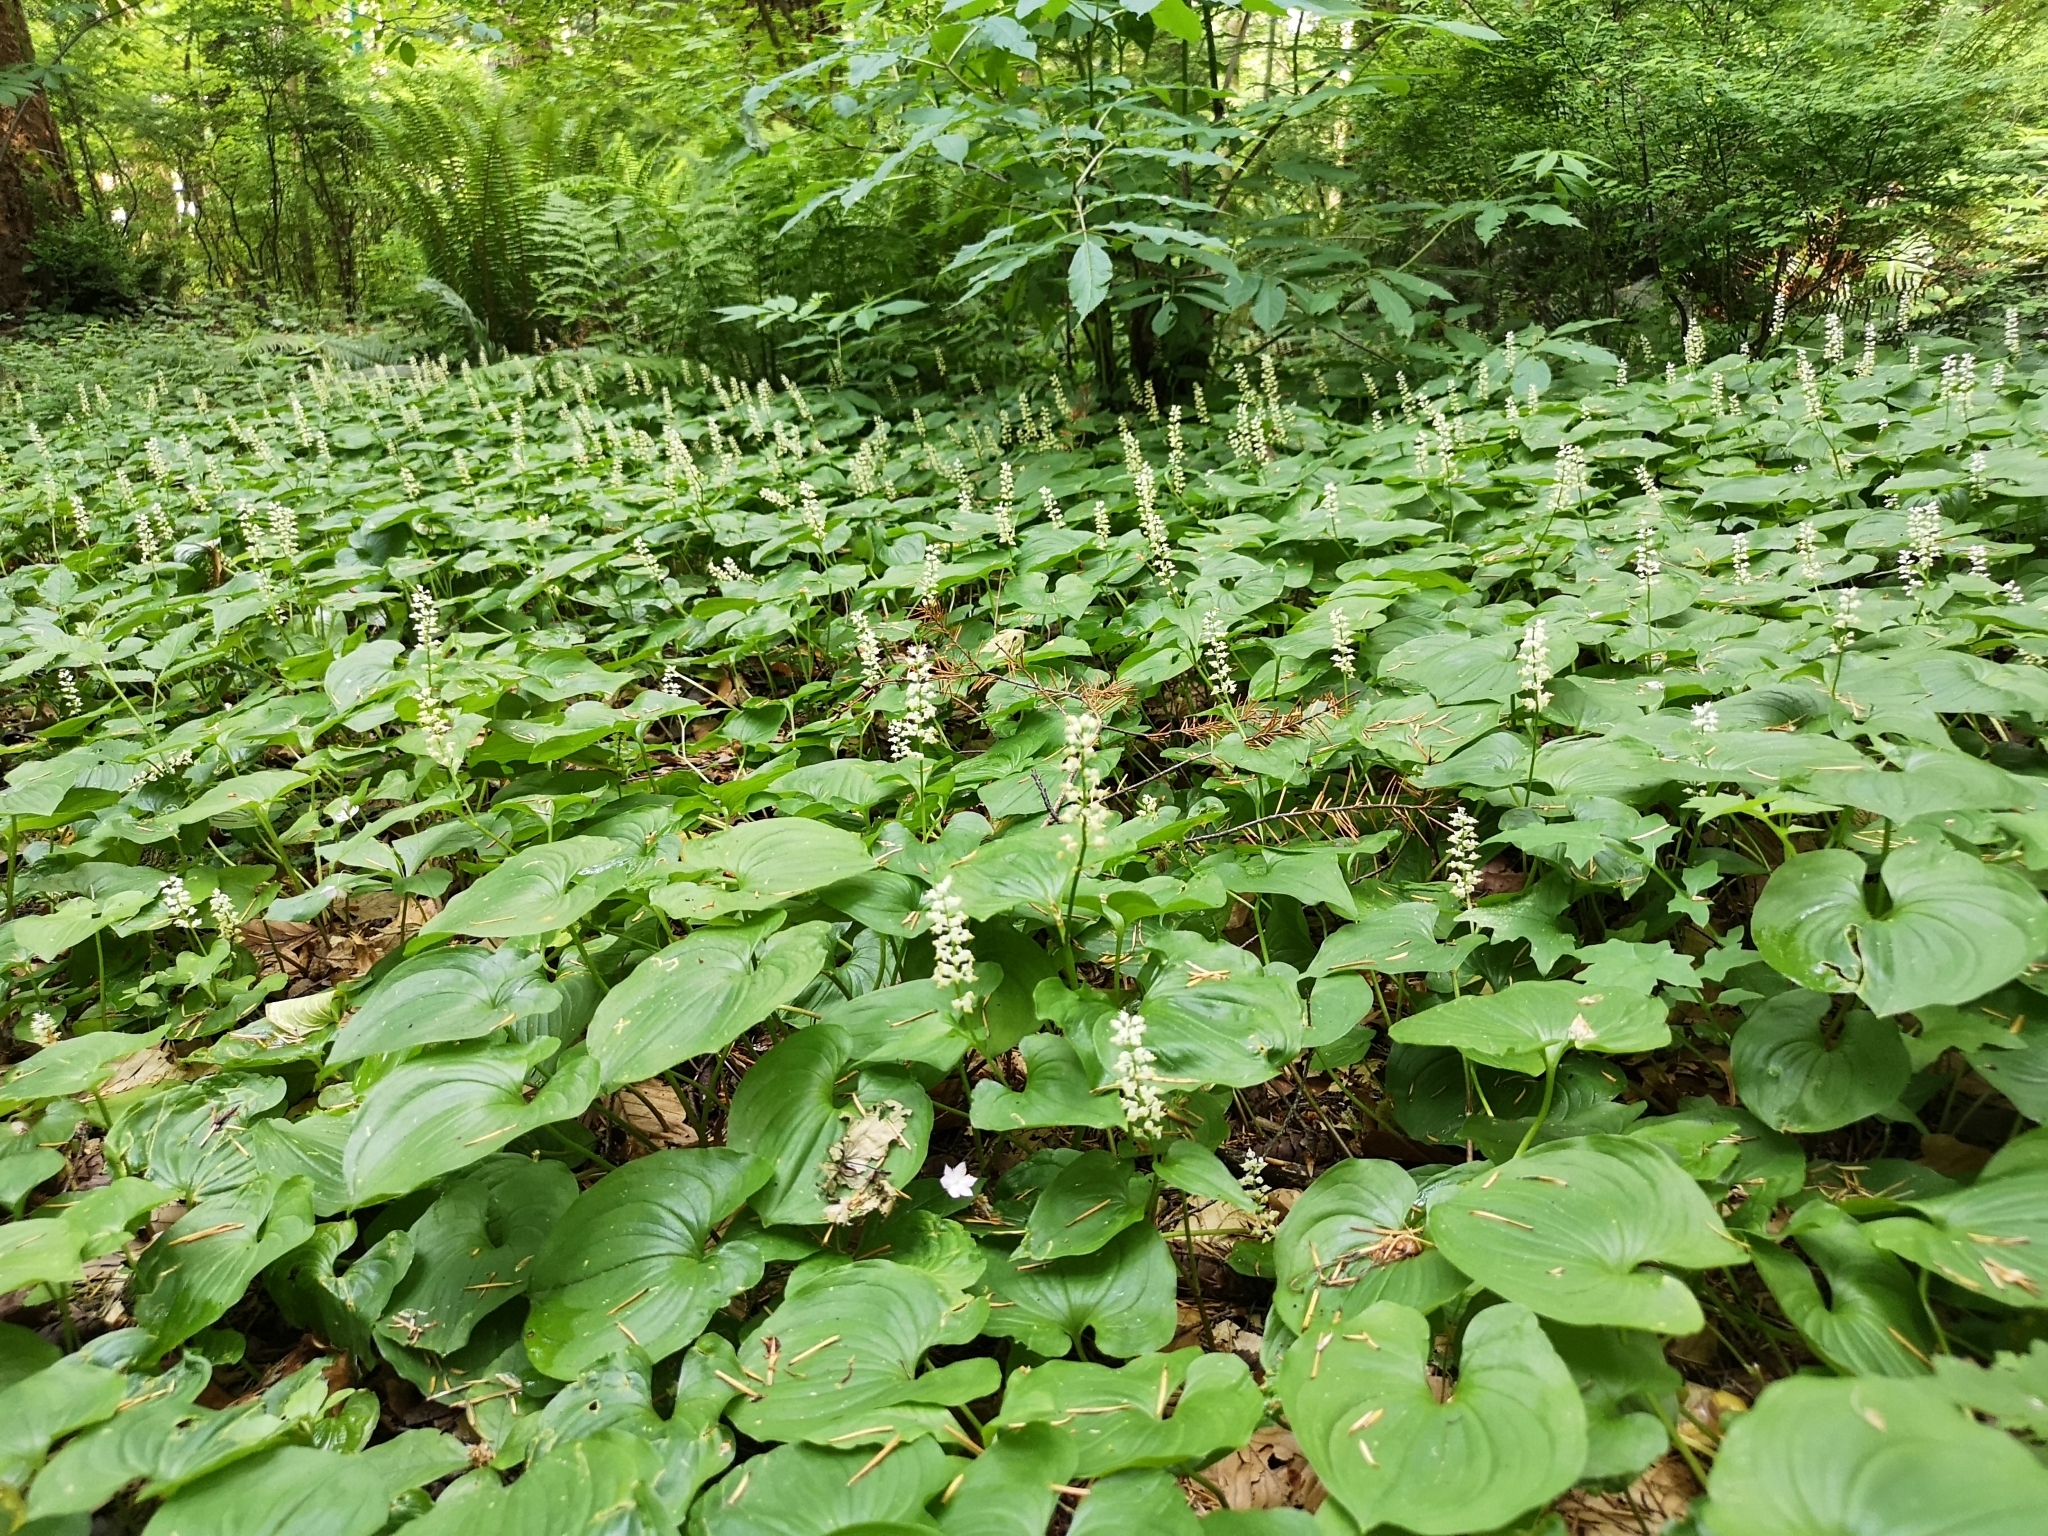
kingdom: Plantae
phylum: Tracheophyta
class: Liliopsida
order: Asparagales
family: Asparagaceae
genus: Maianthemum
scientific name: Maianthemum dilatatum
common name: False lily-of-the-valley
